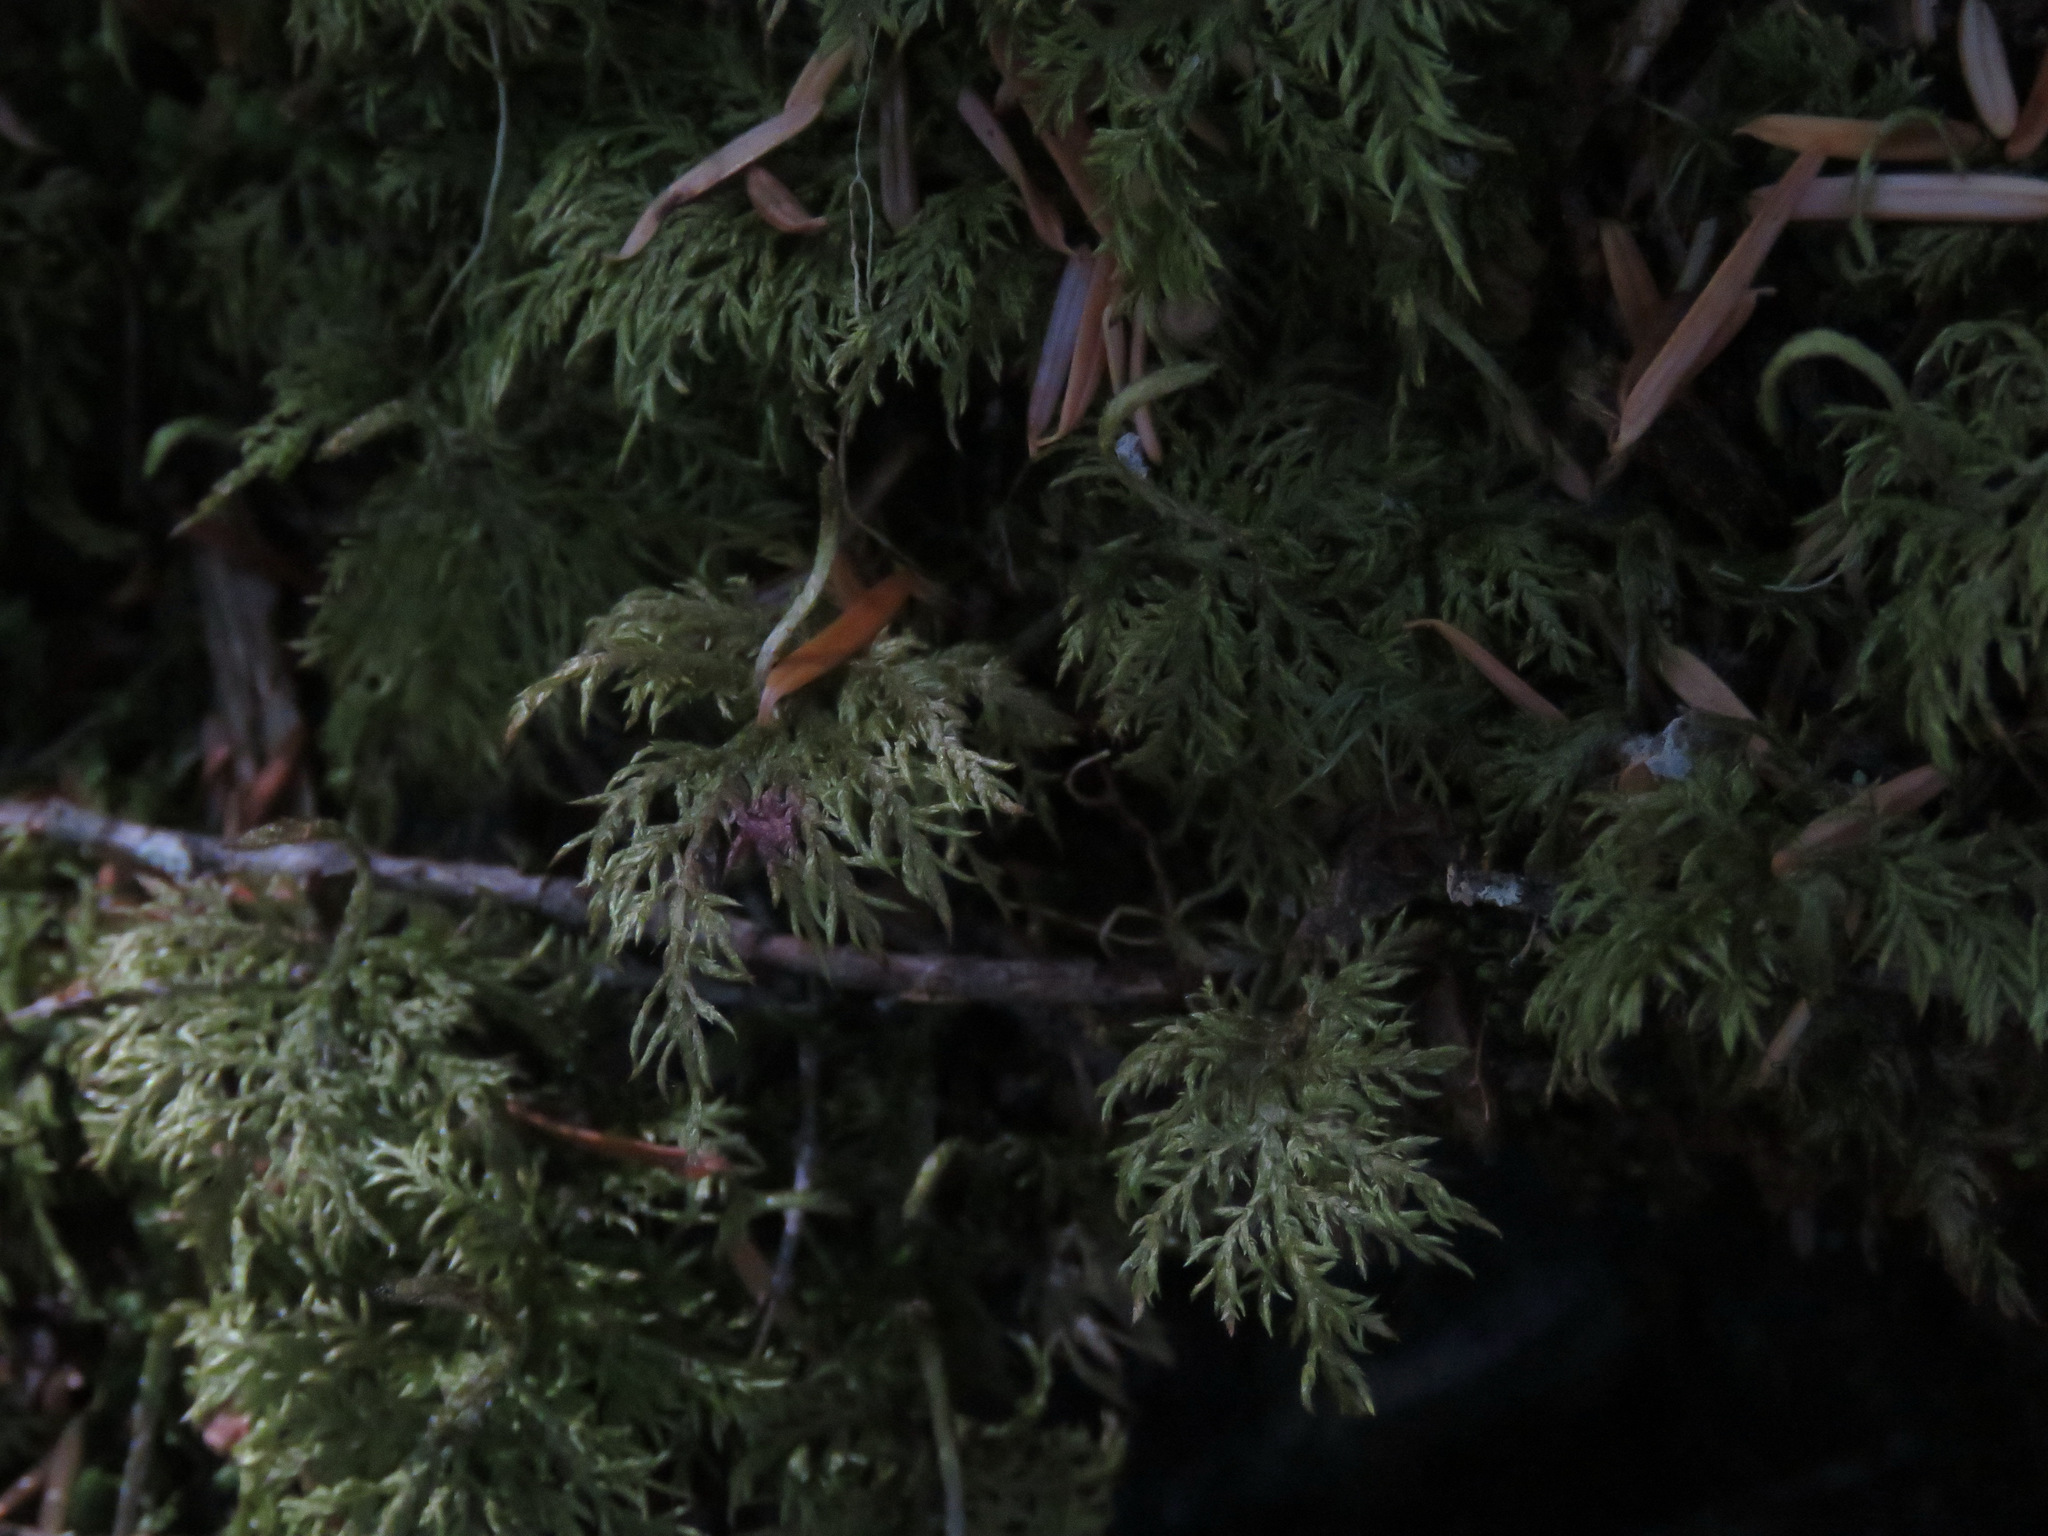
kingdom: Plantae
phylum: Bryophyta
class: Bryopsida
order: Hypnales
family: Hylocomiaceae
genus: Hylocomium
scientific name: Hylocomium splendens
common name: Stairstep moss
